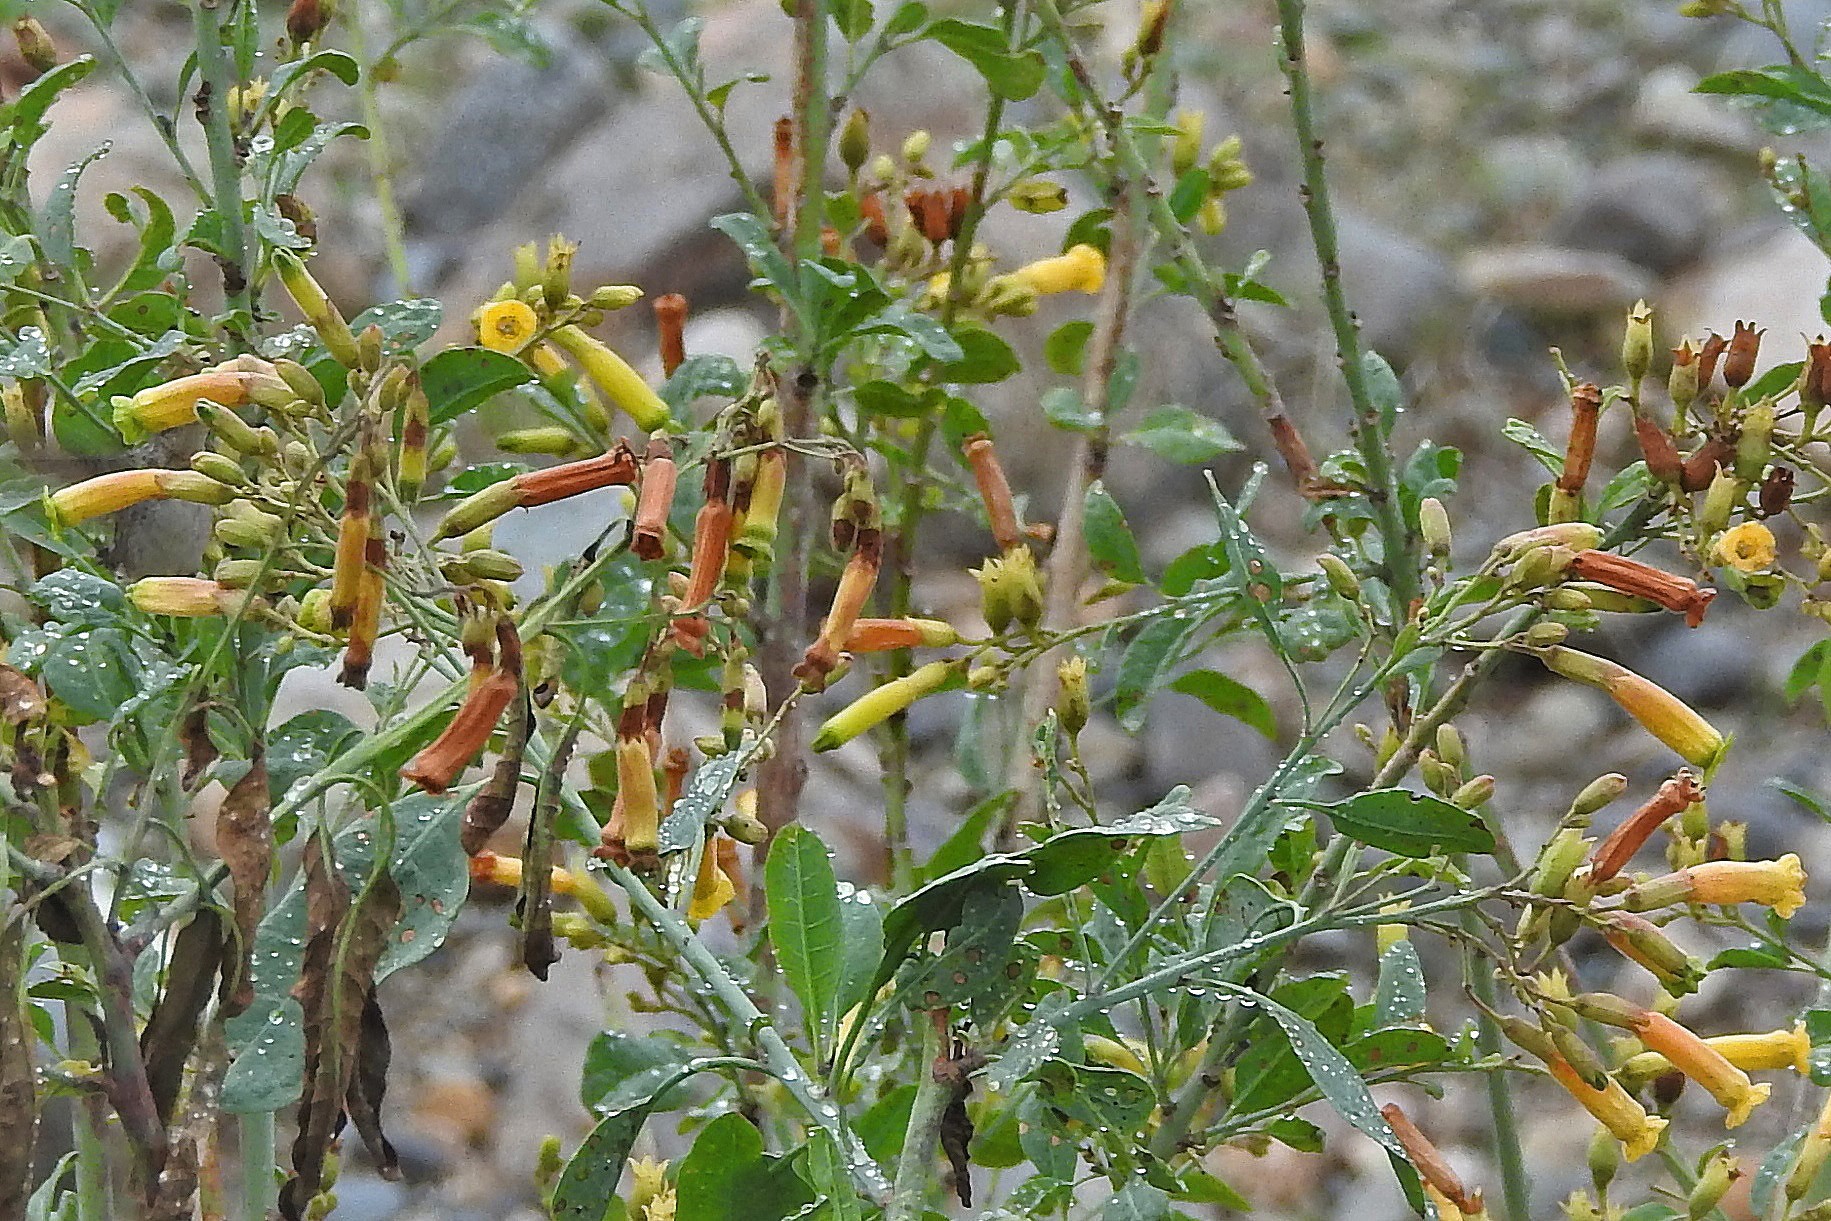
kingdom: Plantae
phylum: Tracheophyta
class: Magnoliopsida
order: Solanales
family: Solanaceae
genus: Nicotiana
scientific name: Nicotiana glauca
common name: Tree tobacco
